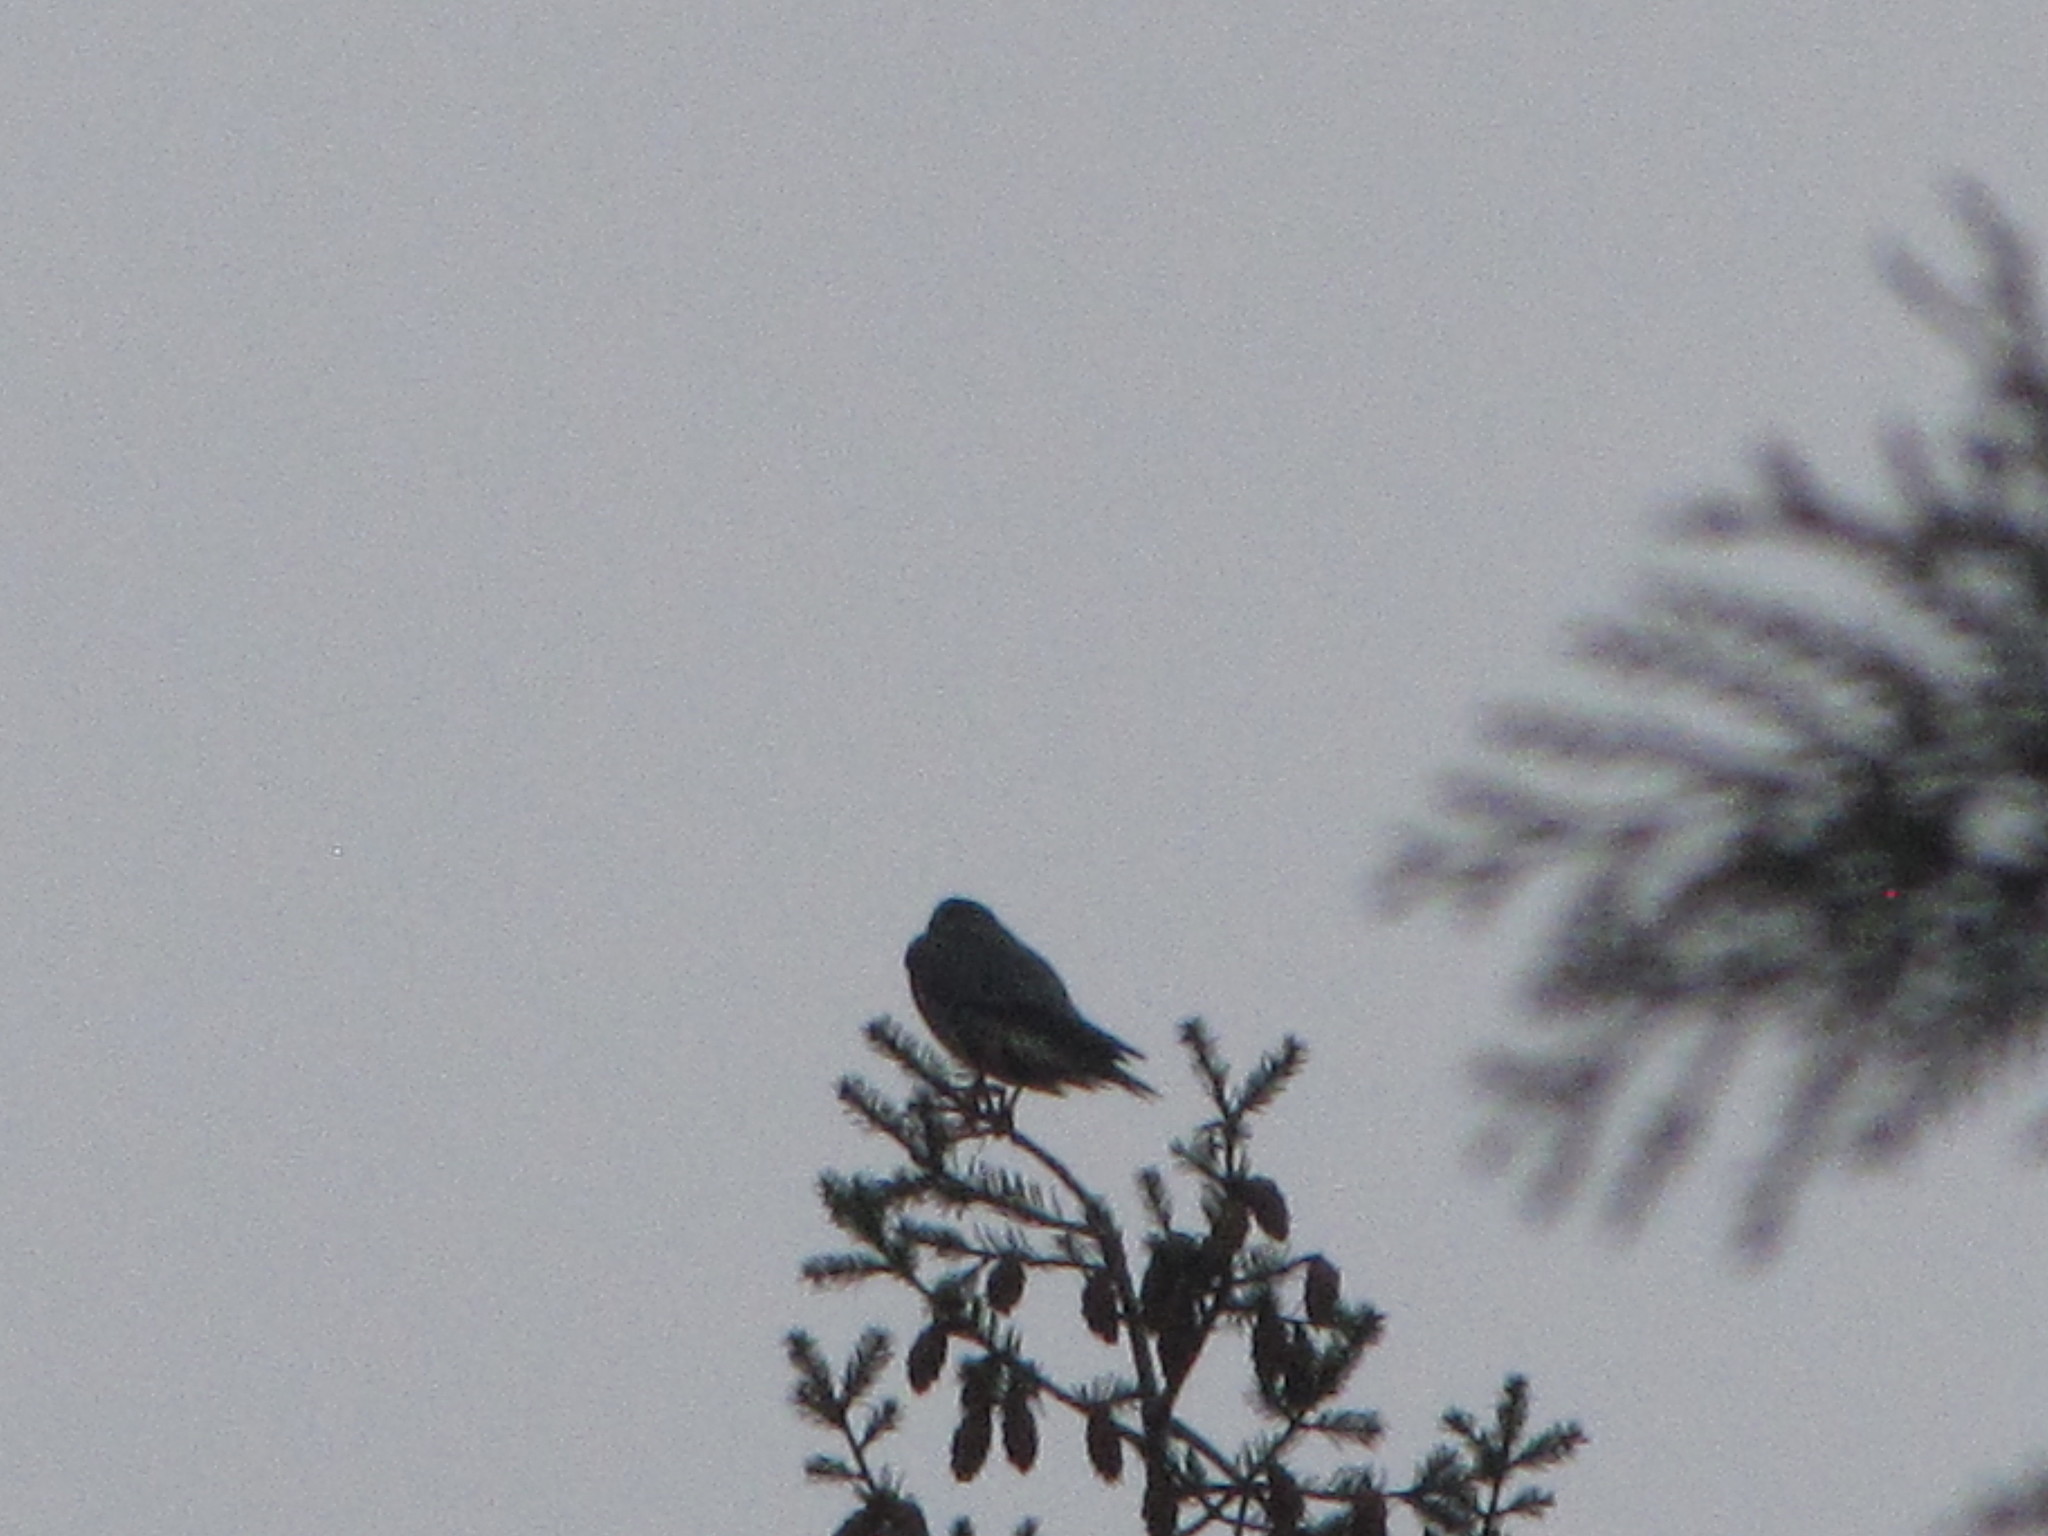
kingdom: Animalia
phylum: Chordata
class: Aves
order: Falconiformes
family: Falconidae
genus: Falco
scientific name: Falco columbarius
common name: Merlin
